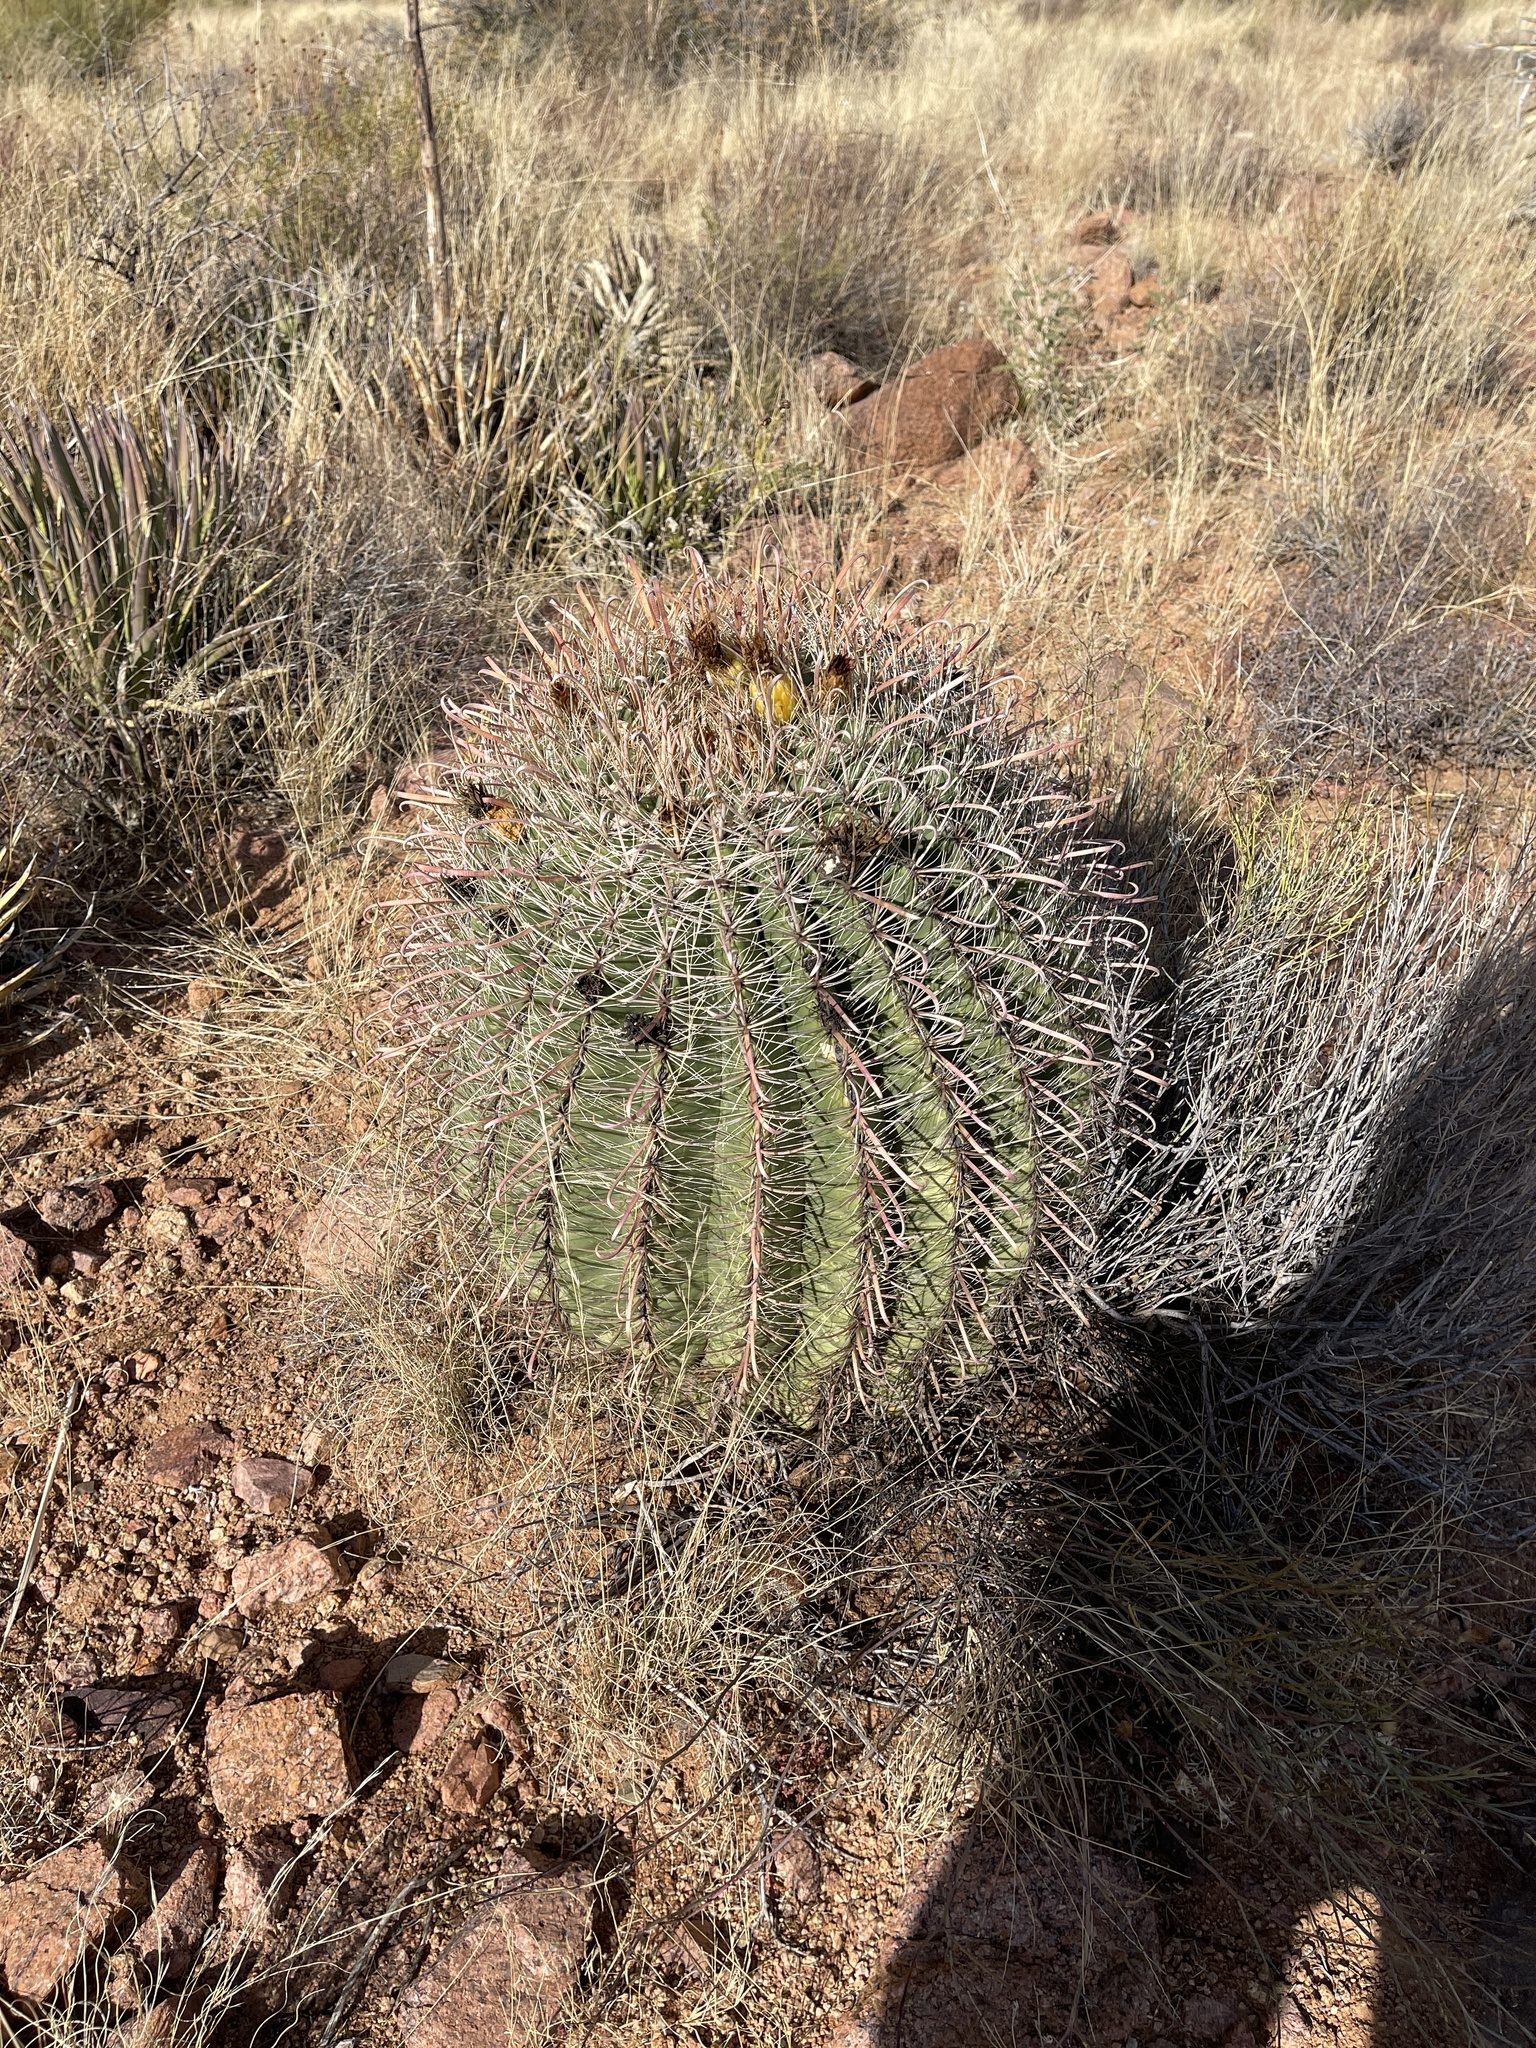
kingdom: Plantae
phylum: Tracheophyta
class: Magnoliopsida
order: Caryophyllales
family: Cactaceae
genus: Ferocactus
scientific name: Ferocactus wislizeni
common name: Candy barrel cactus
